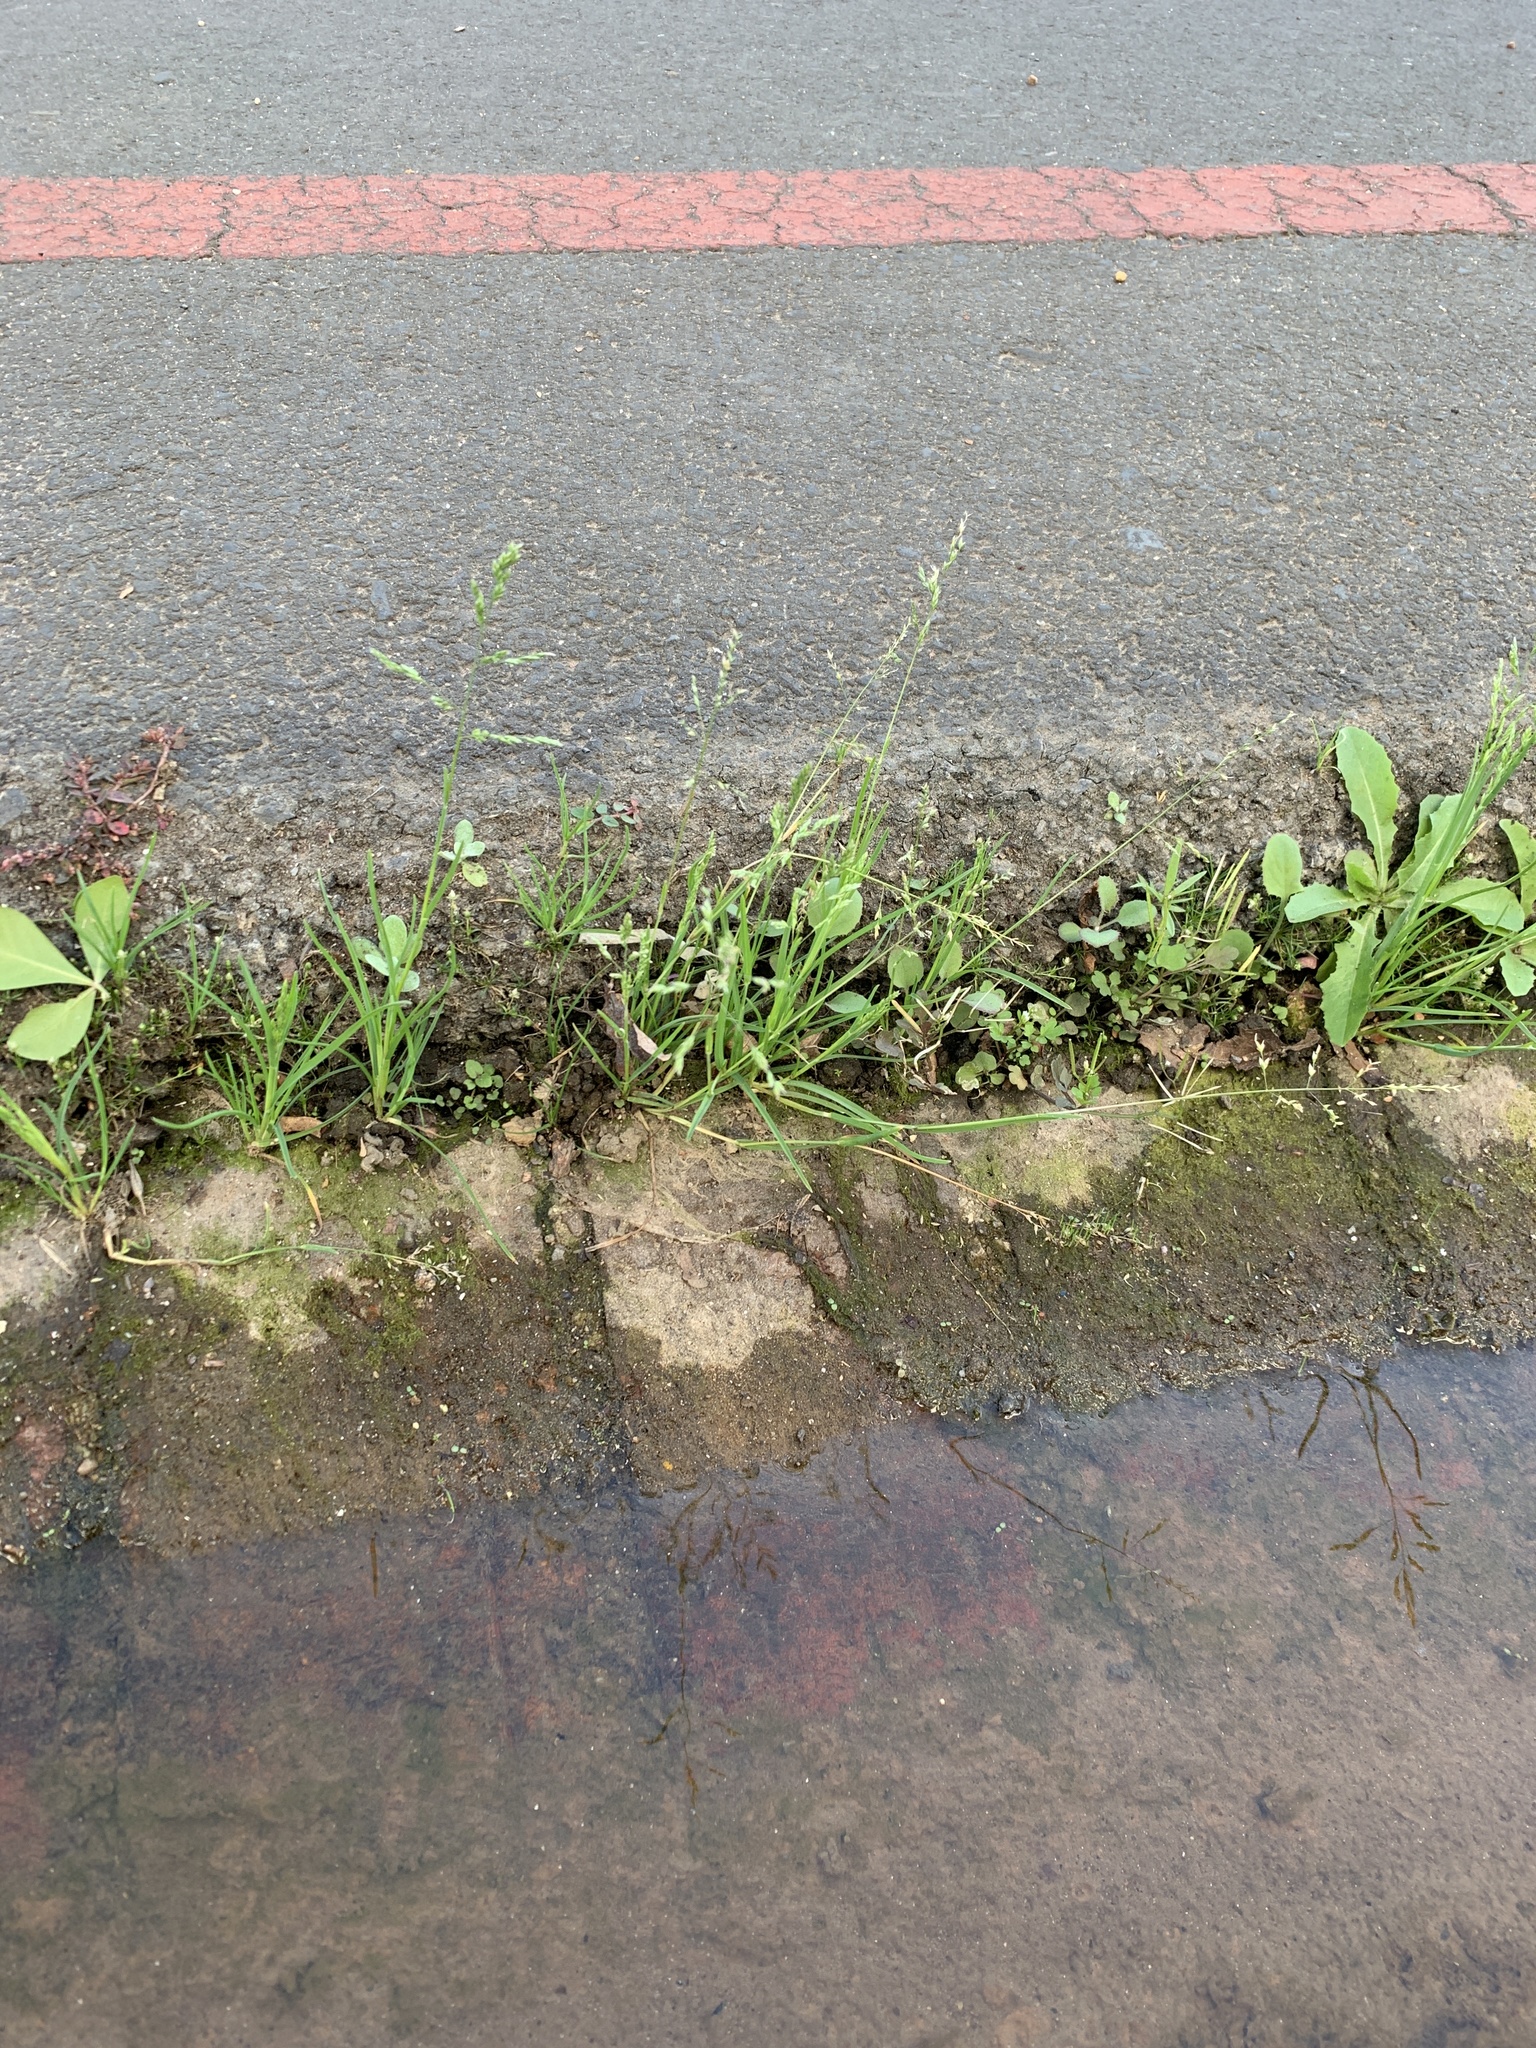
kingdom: Plantae
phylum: Tracheophyta
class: Liliopsida
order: Poales
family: Poaceae
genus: Poa
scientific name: Poa annua
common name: Annual bluegrass
